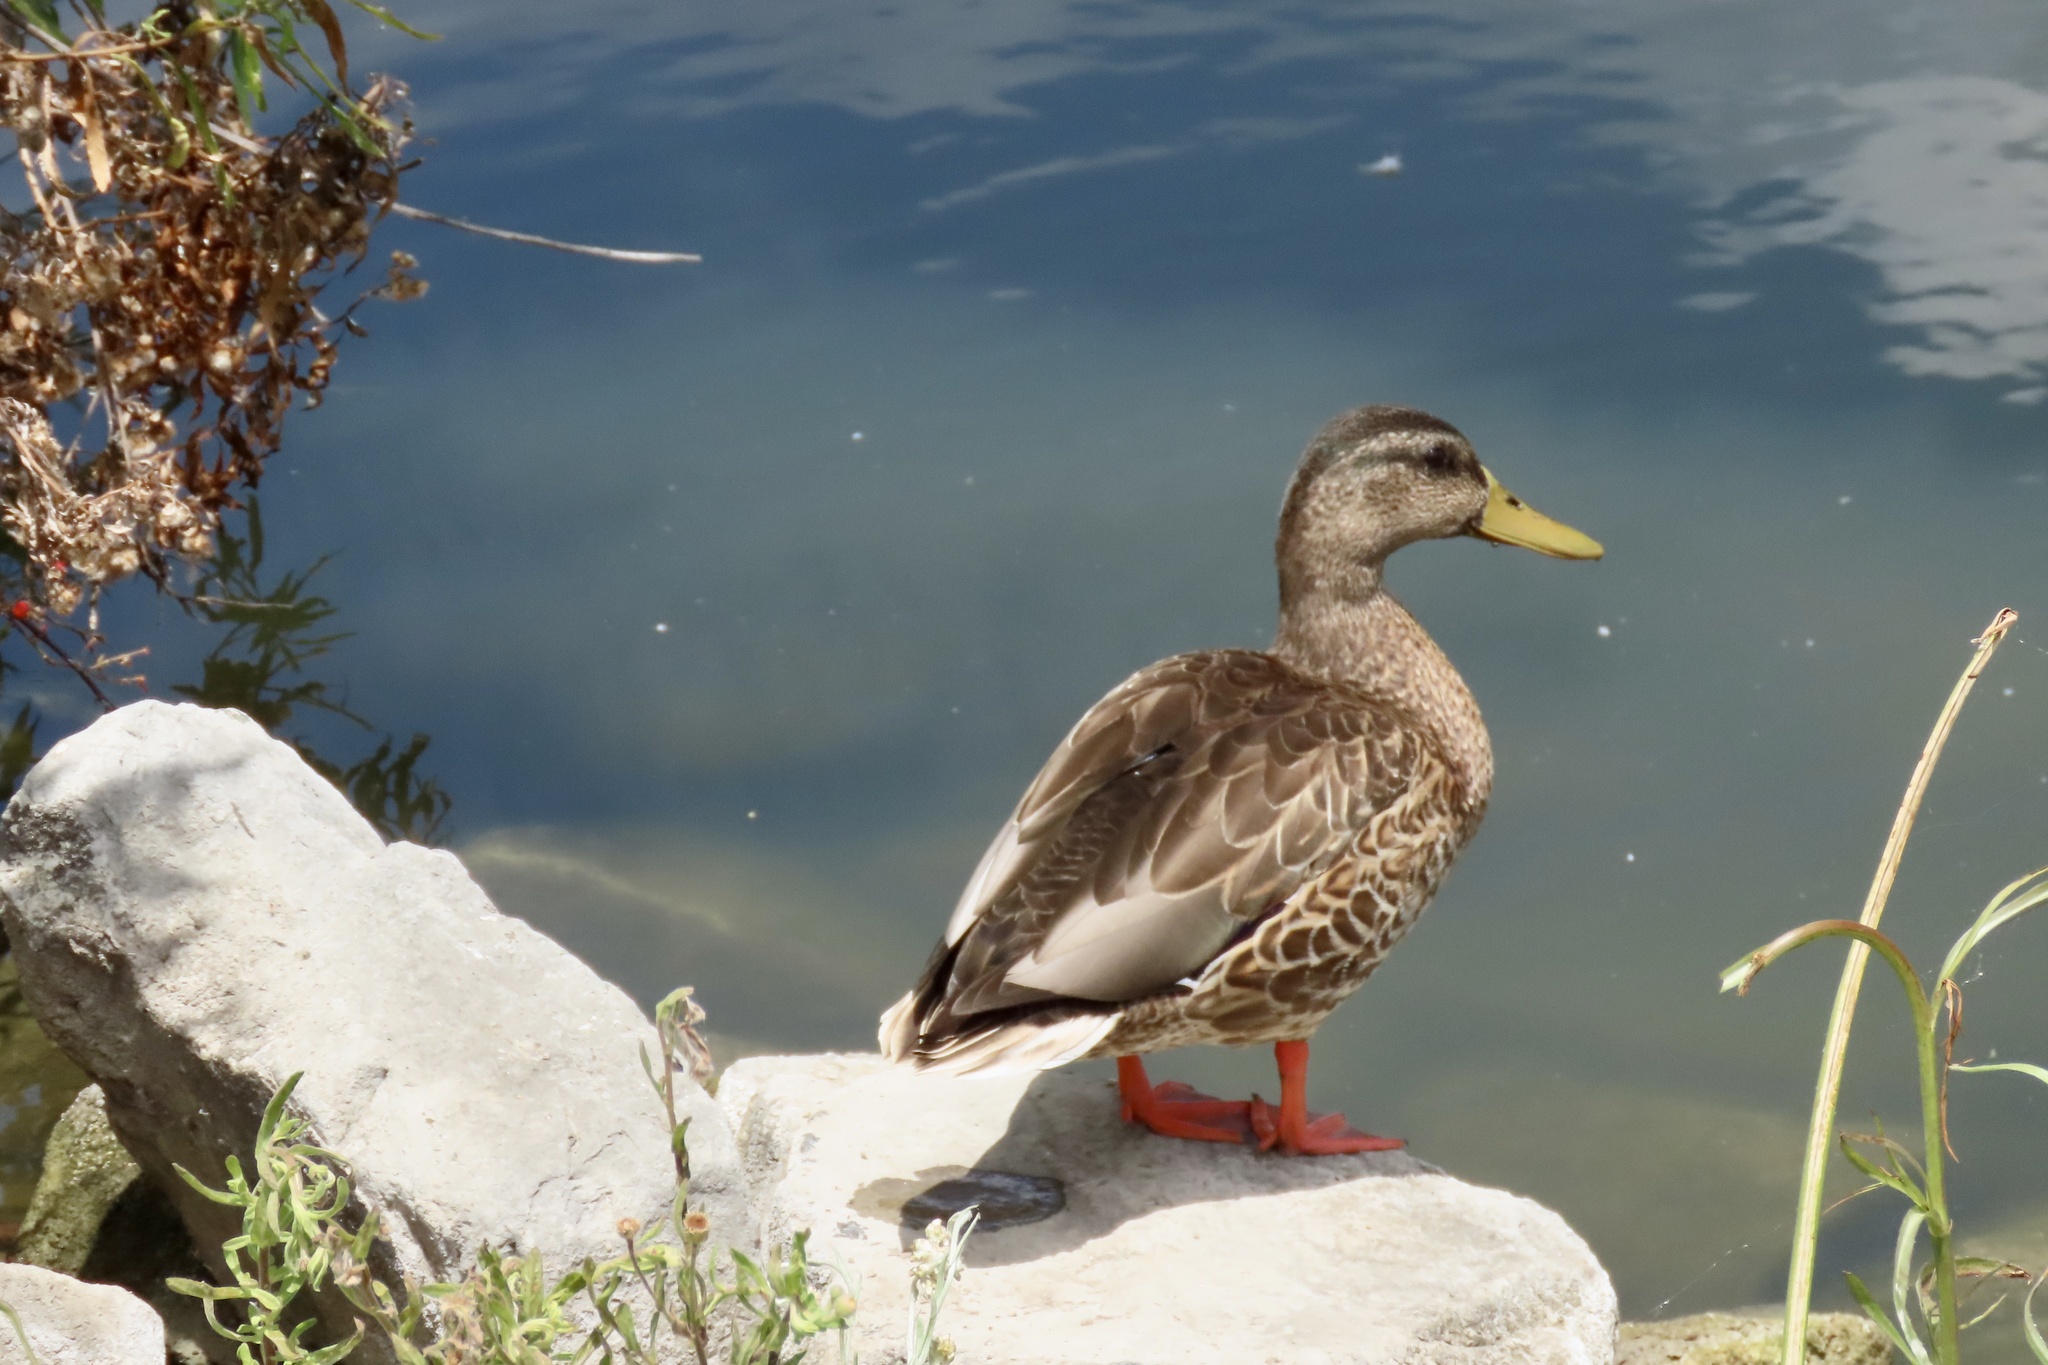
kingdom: Animalia
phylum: Chordata
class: Aves
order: Anseriformes
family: Anatidae
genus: Anas
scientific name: Anas platyrhynchos
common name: Mallard
